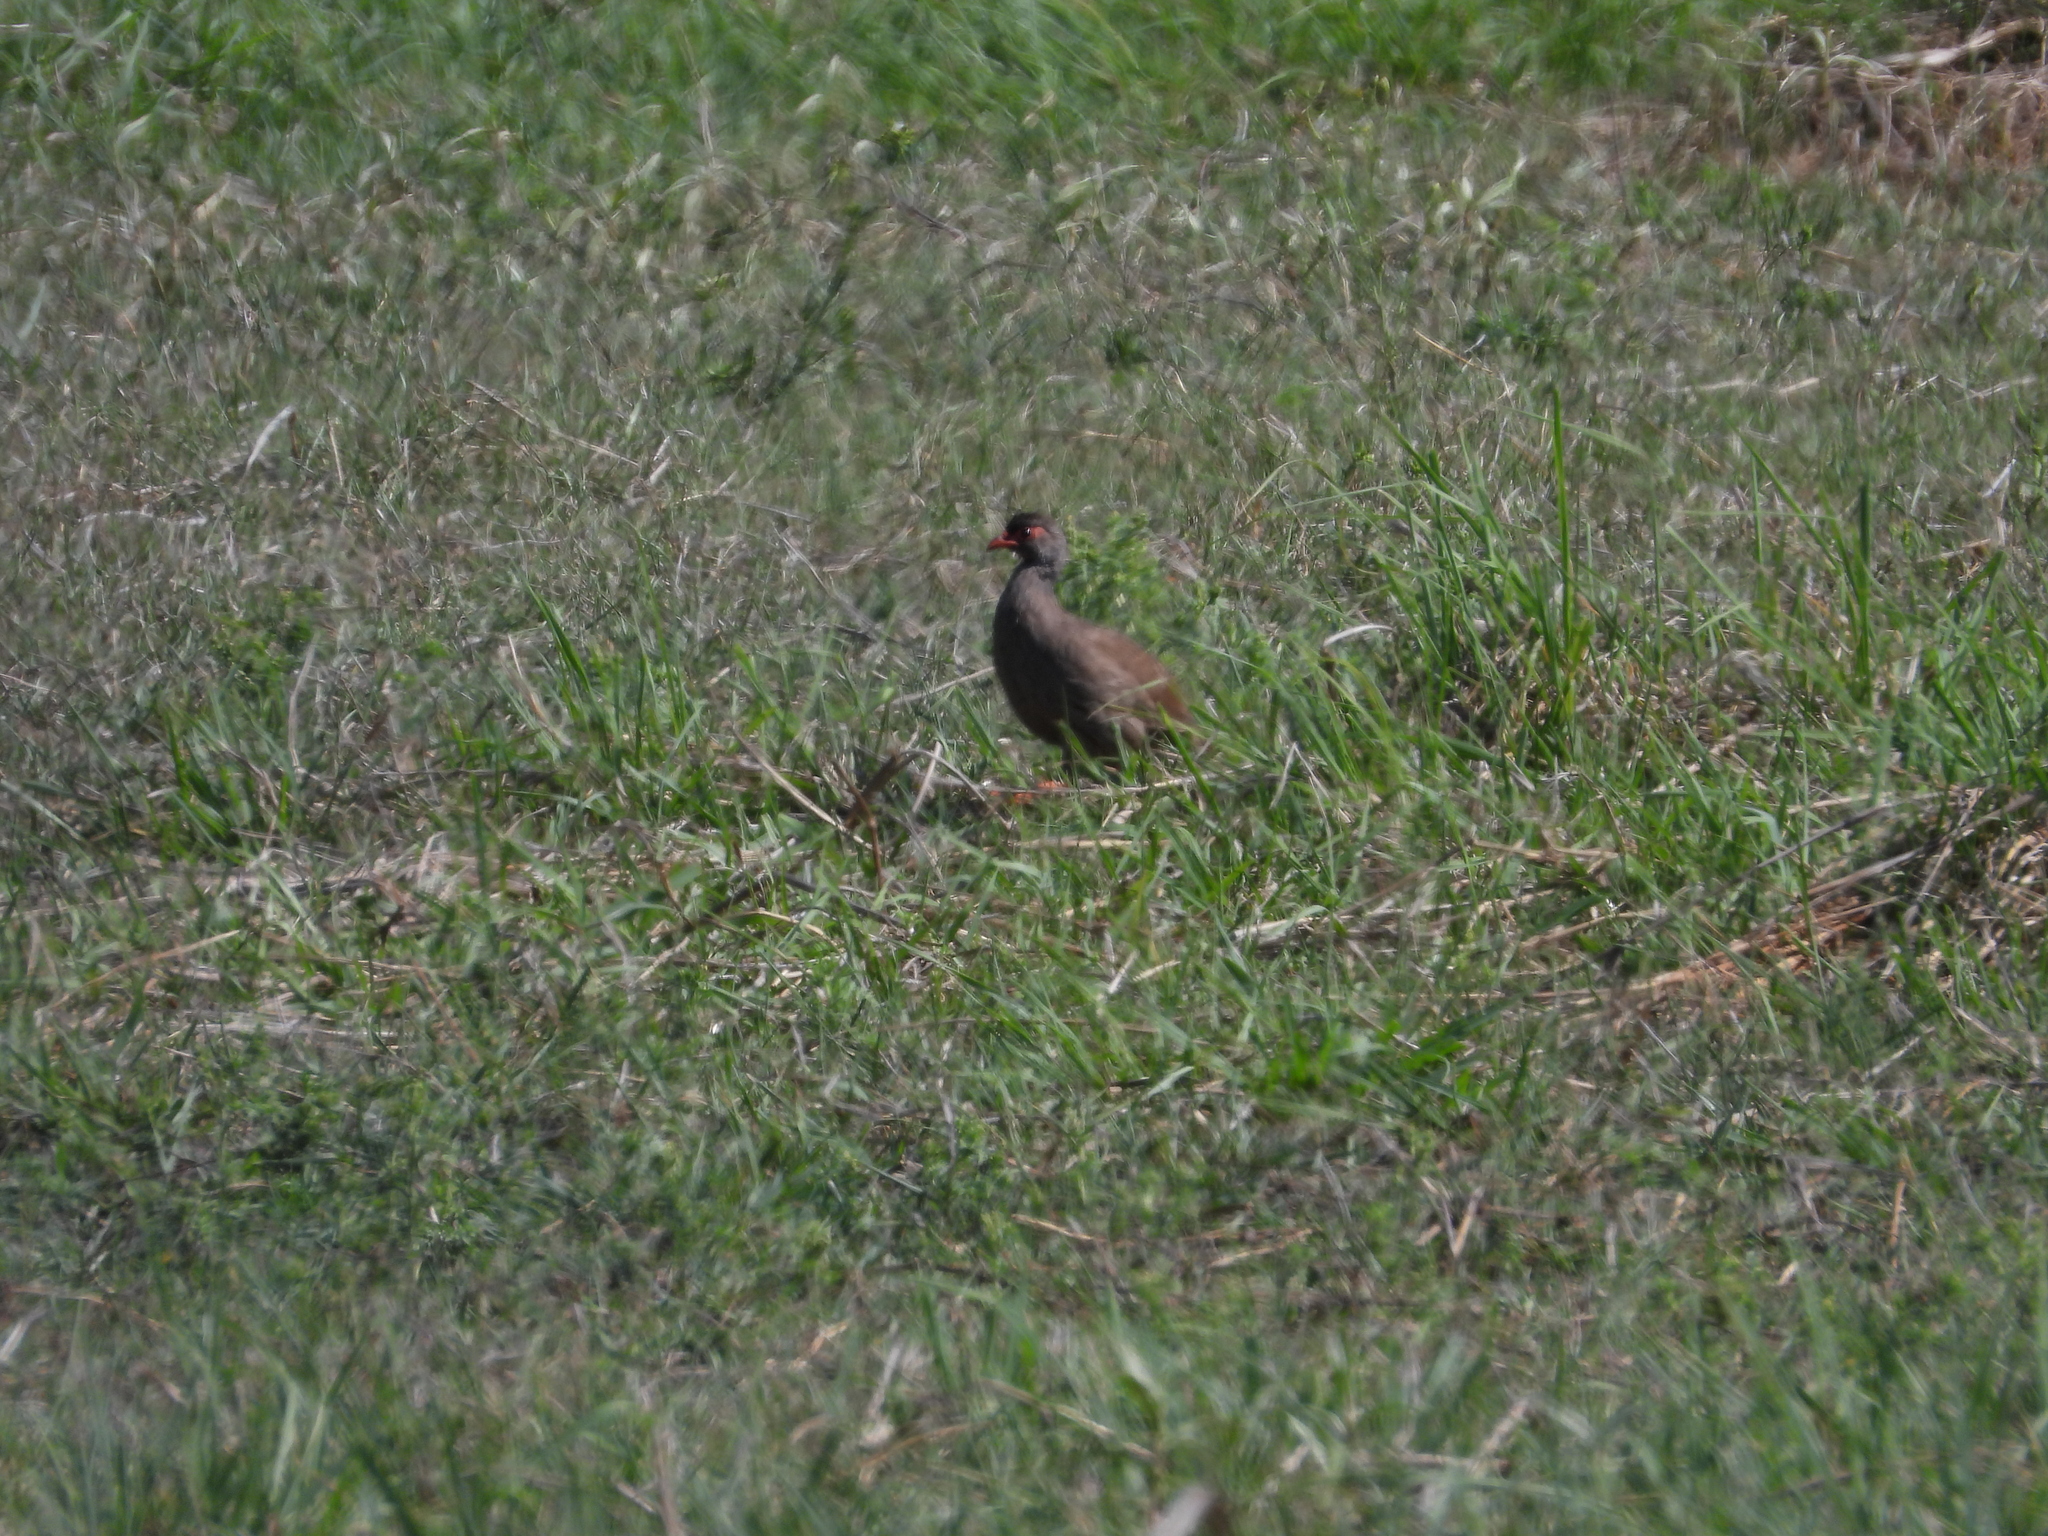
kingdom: Animalia
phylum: Chordata
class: Aves
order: Galliformes
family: Phasianidae
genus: Pternistis
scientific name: Pternistis afer
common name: Red-necked spurfowl
